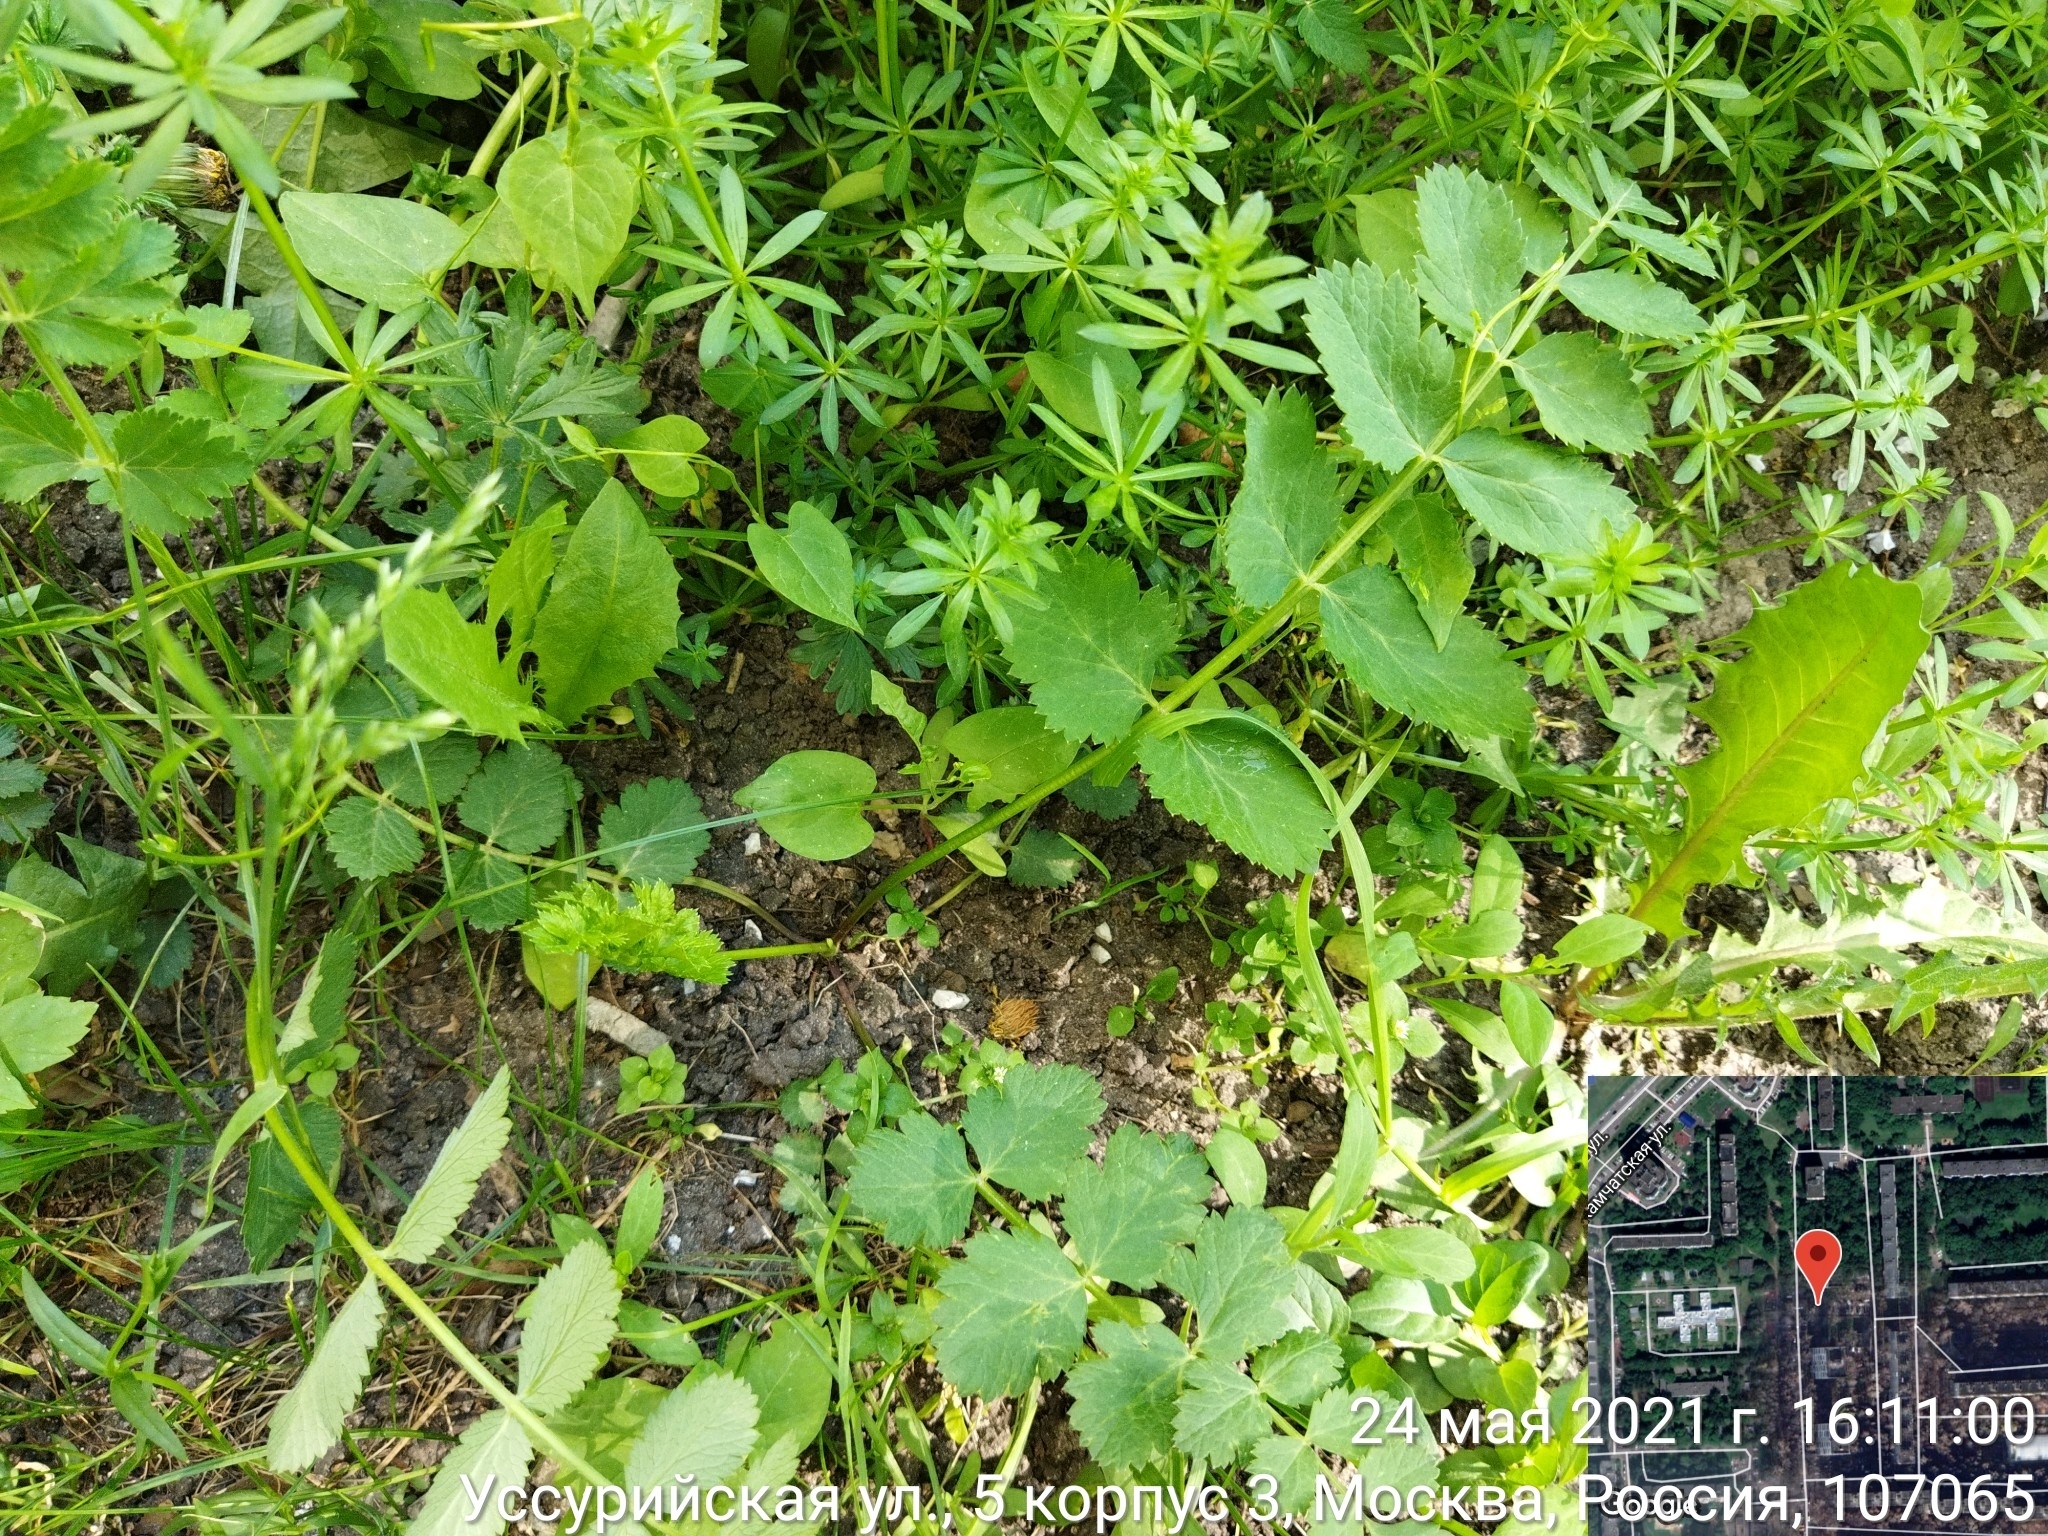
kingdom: Plantae
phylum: Tracheophyta
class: Magnoliopsida
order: Apiales
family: Apiaceae
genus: Pimpinella
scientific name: Pimpinella saxifraga
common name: Burnet-saxifrage
